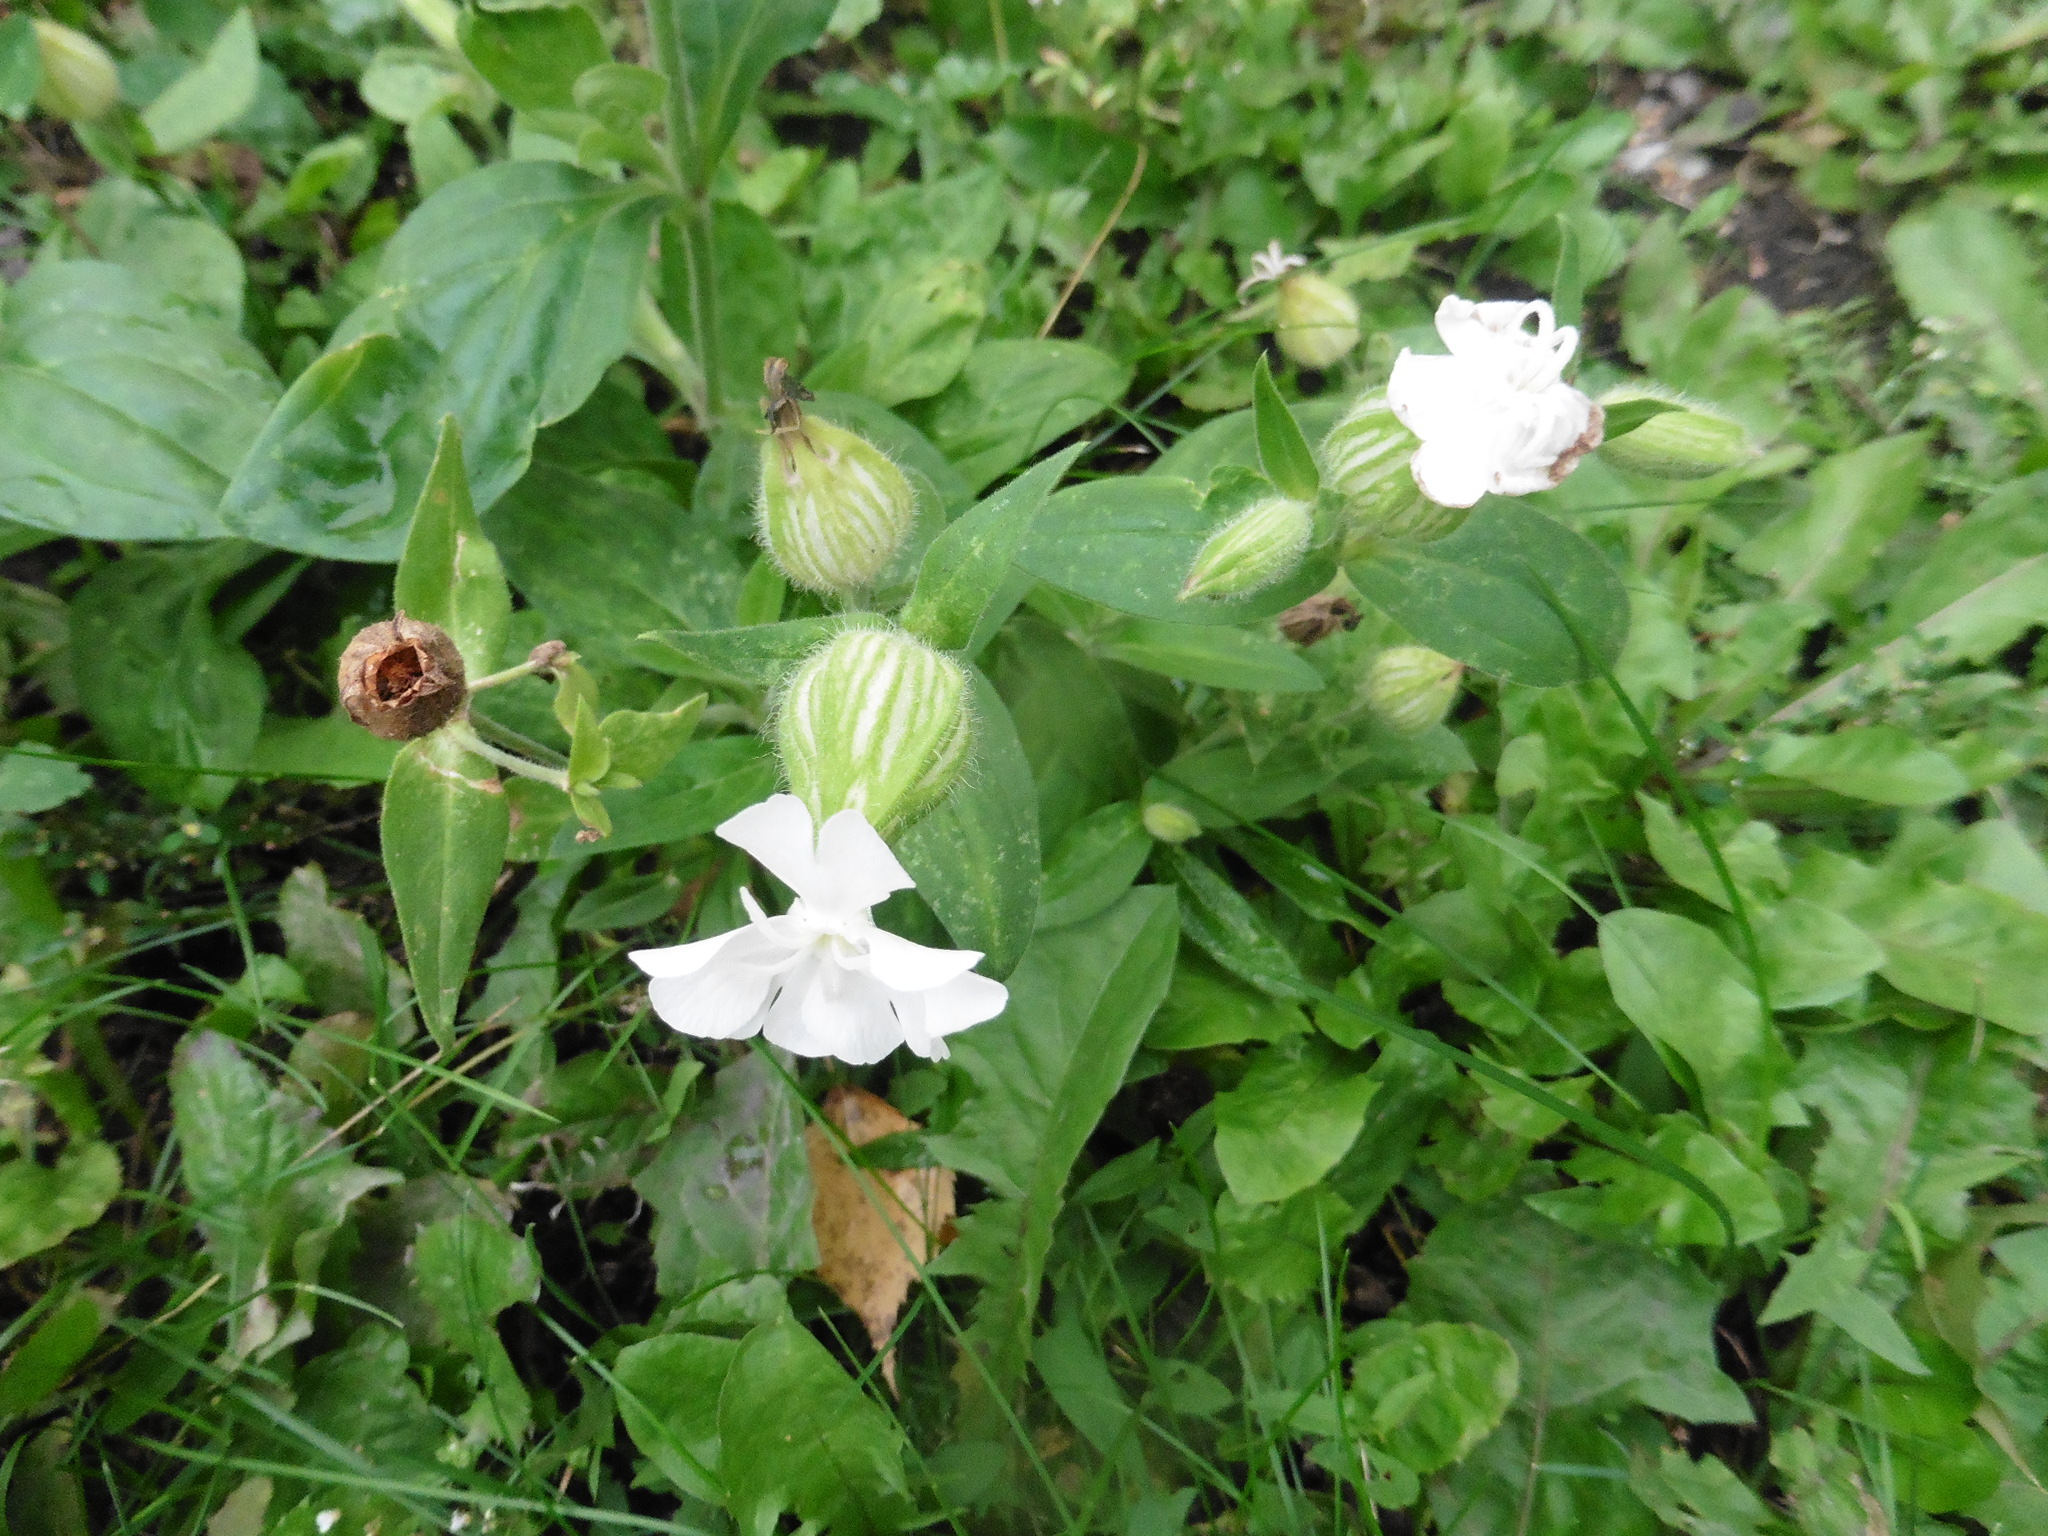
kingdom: Plantae
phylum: Tracheophyta
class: Magnoliopsida
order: Caryophyllales
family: Caryophyllaceae
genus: Silene
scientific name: Silene latifolia
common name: White campion
